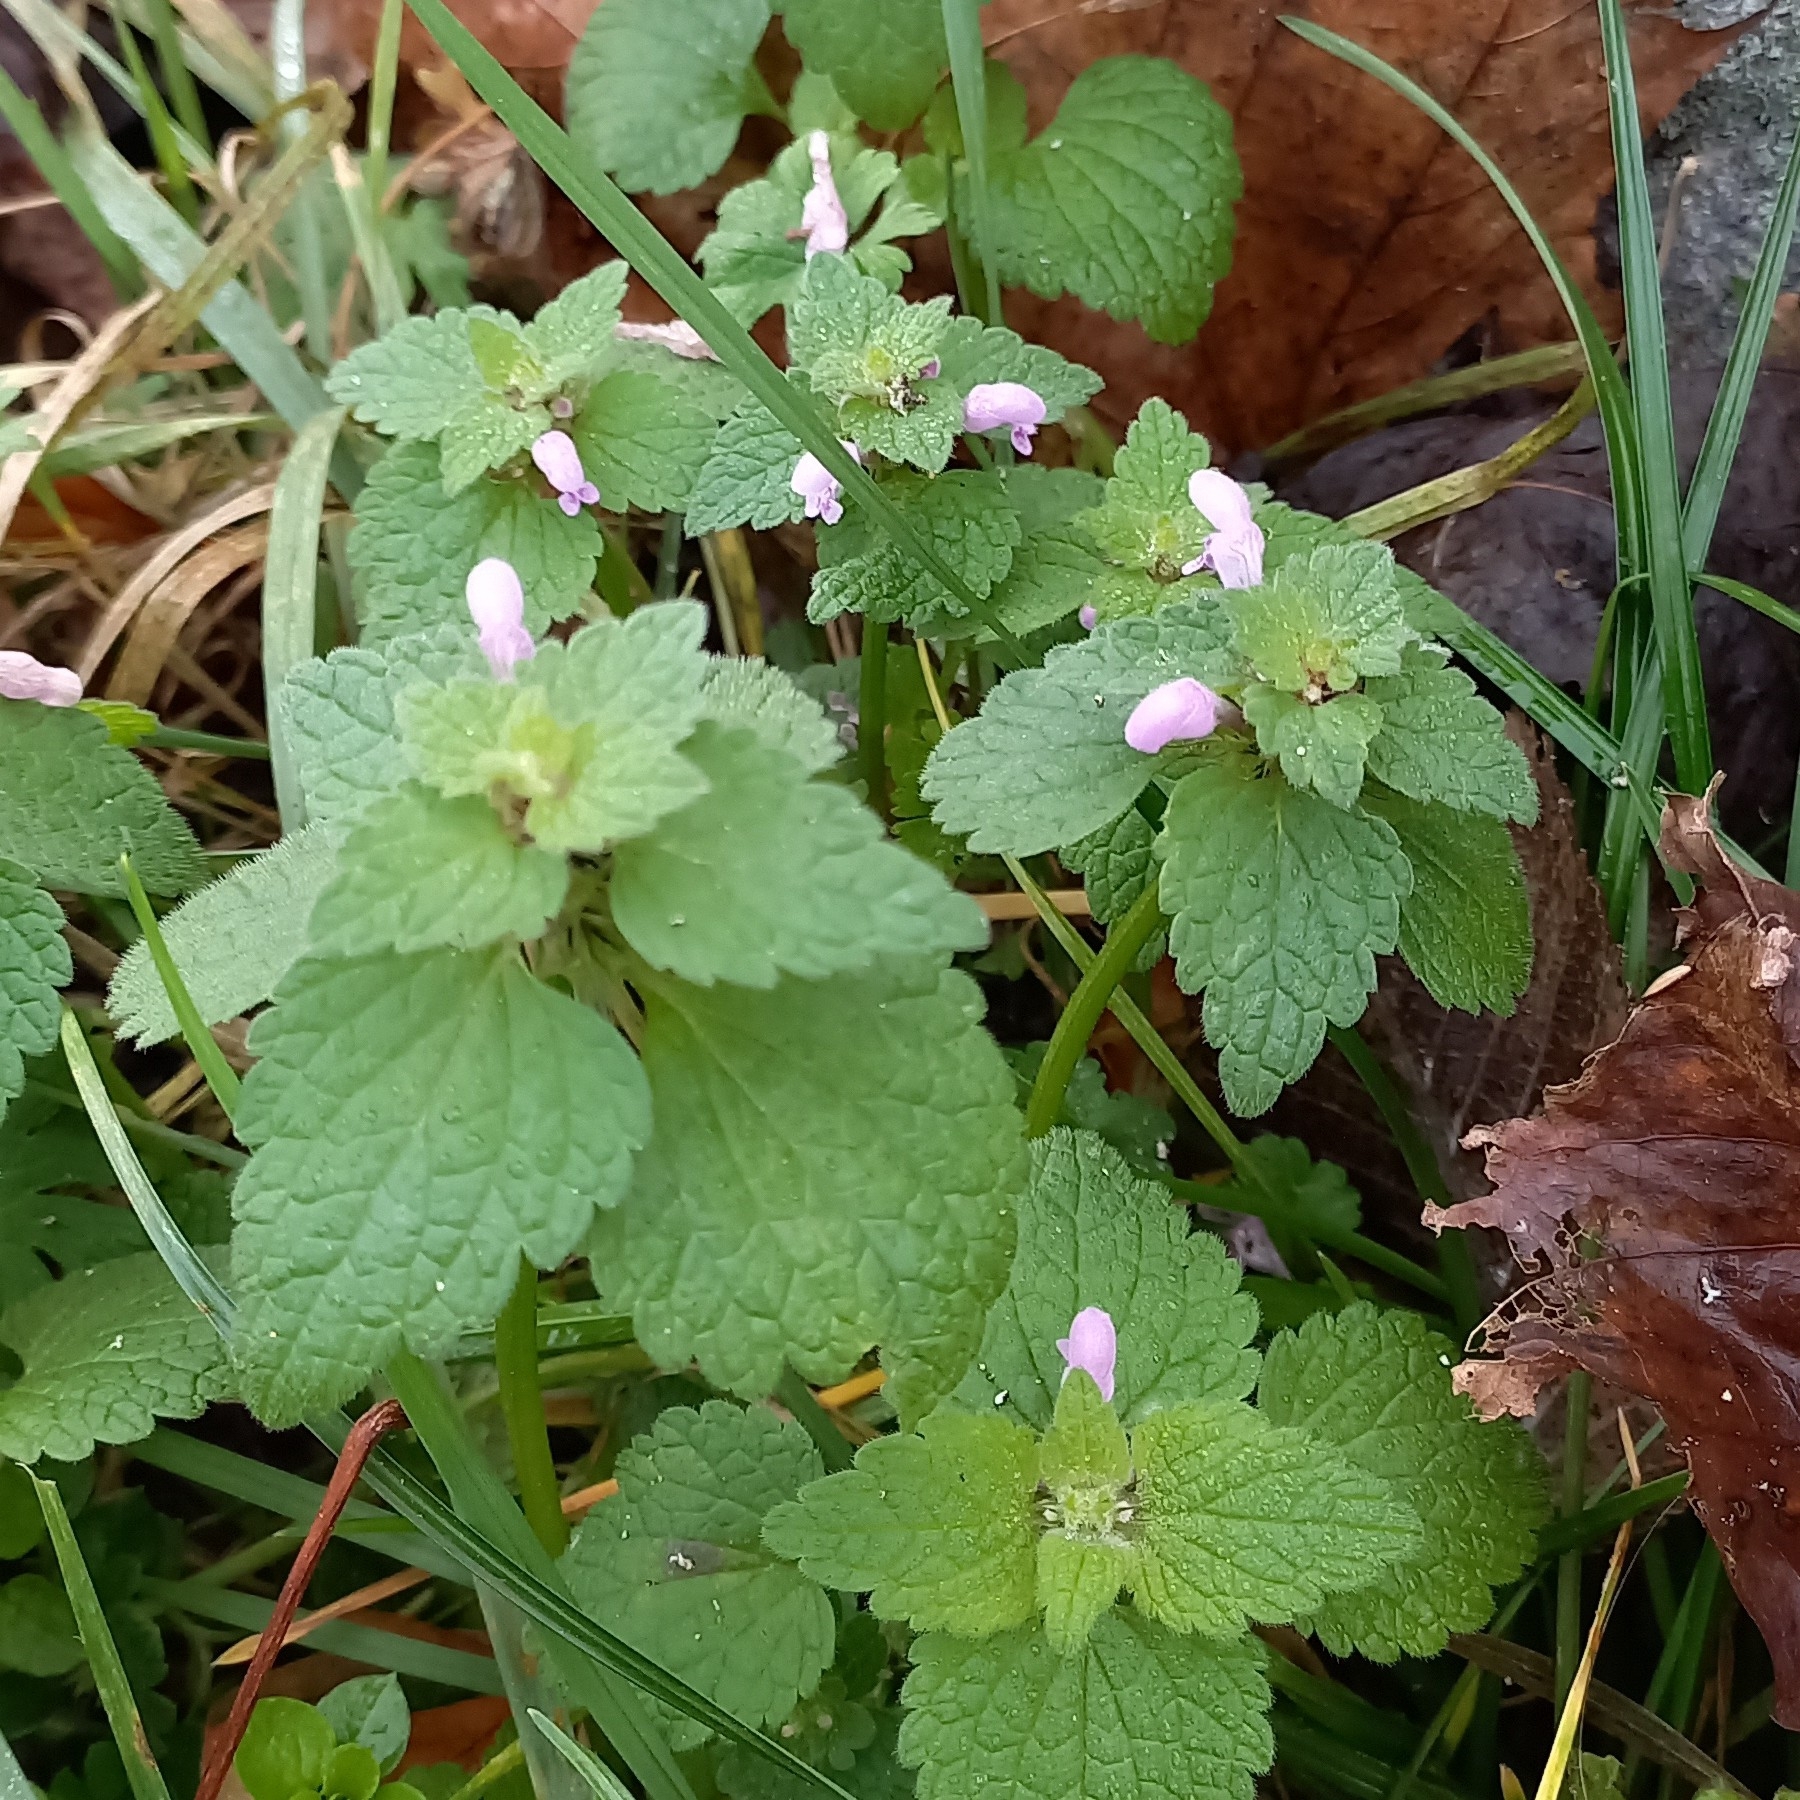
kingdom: Plantae
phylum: Tracheophyta
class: Magnoliopsida
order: Lamiales
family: Lamiaceae
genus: Lamium
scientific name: Lamium purpureum
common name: Red dead-nettle
